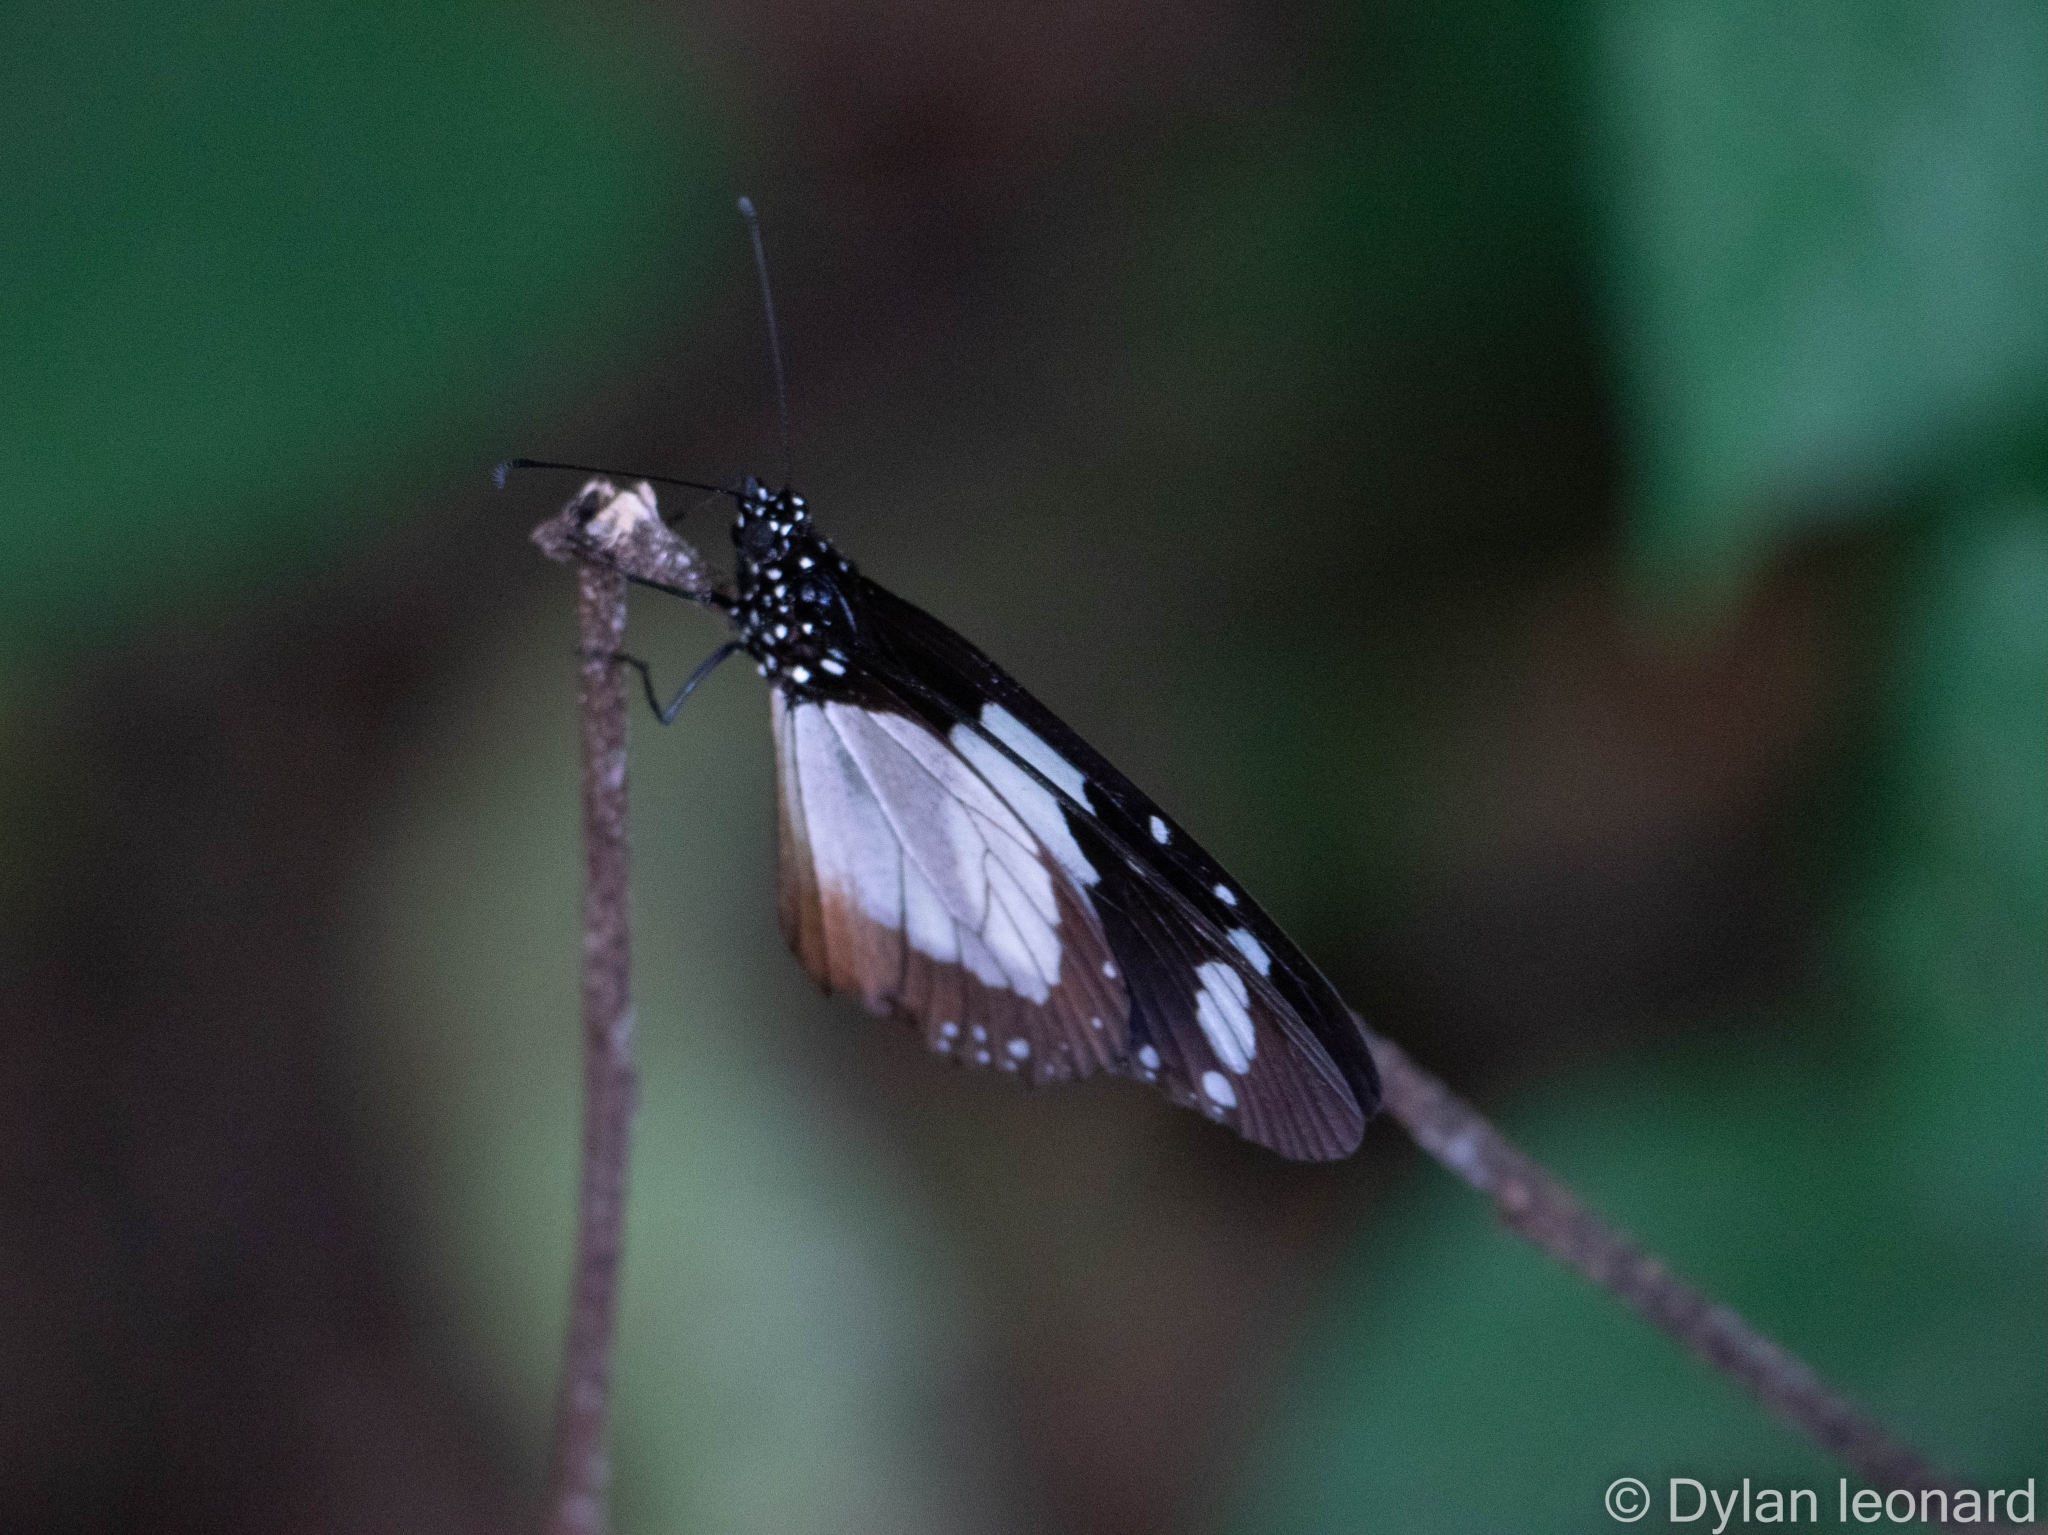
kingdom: Animalia
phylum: Arthropoda
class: Insecta
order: Lepidoptera
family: Nymphalidae
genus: Amauris
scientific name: Amauris ochlea
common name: Novice
